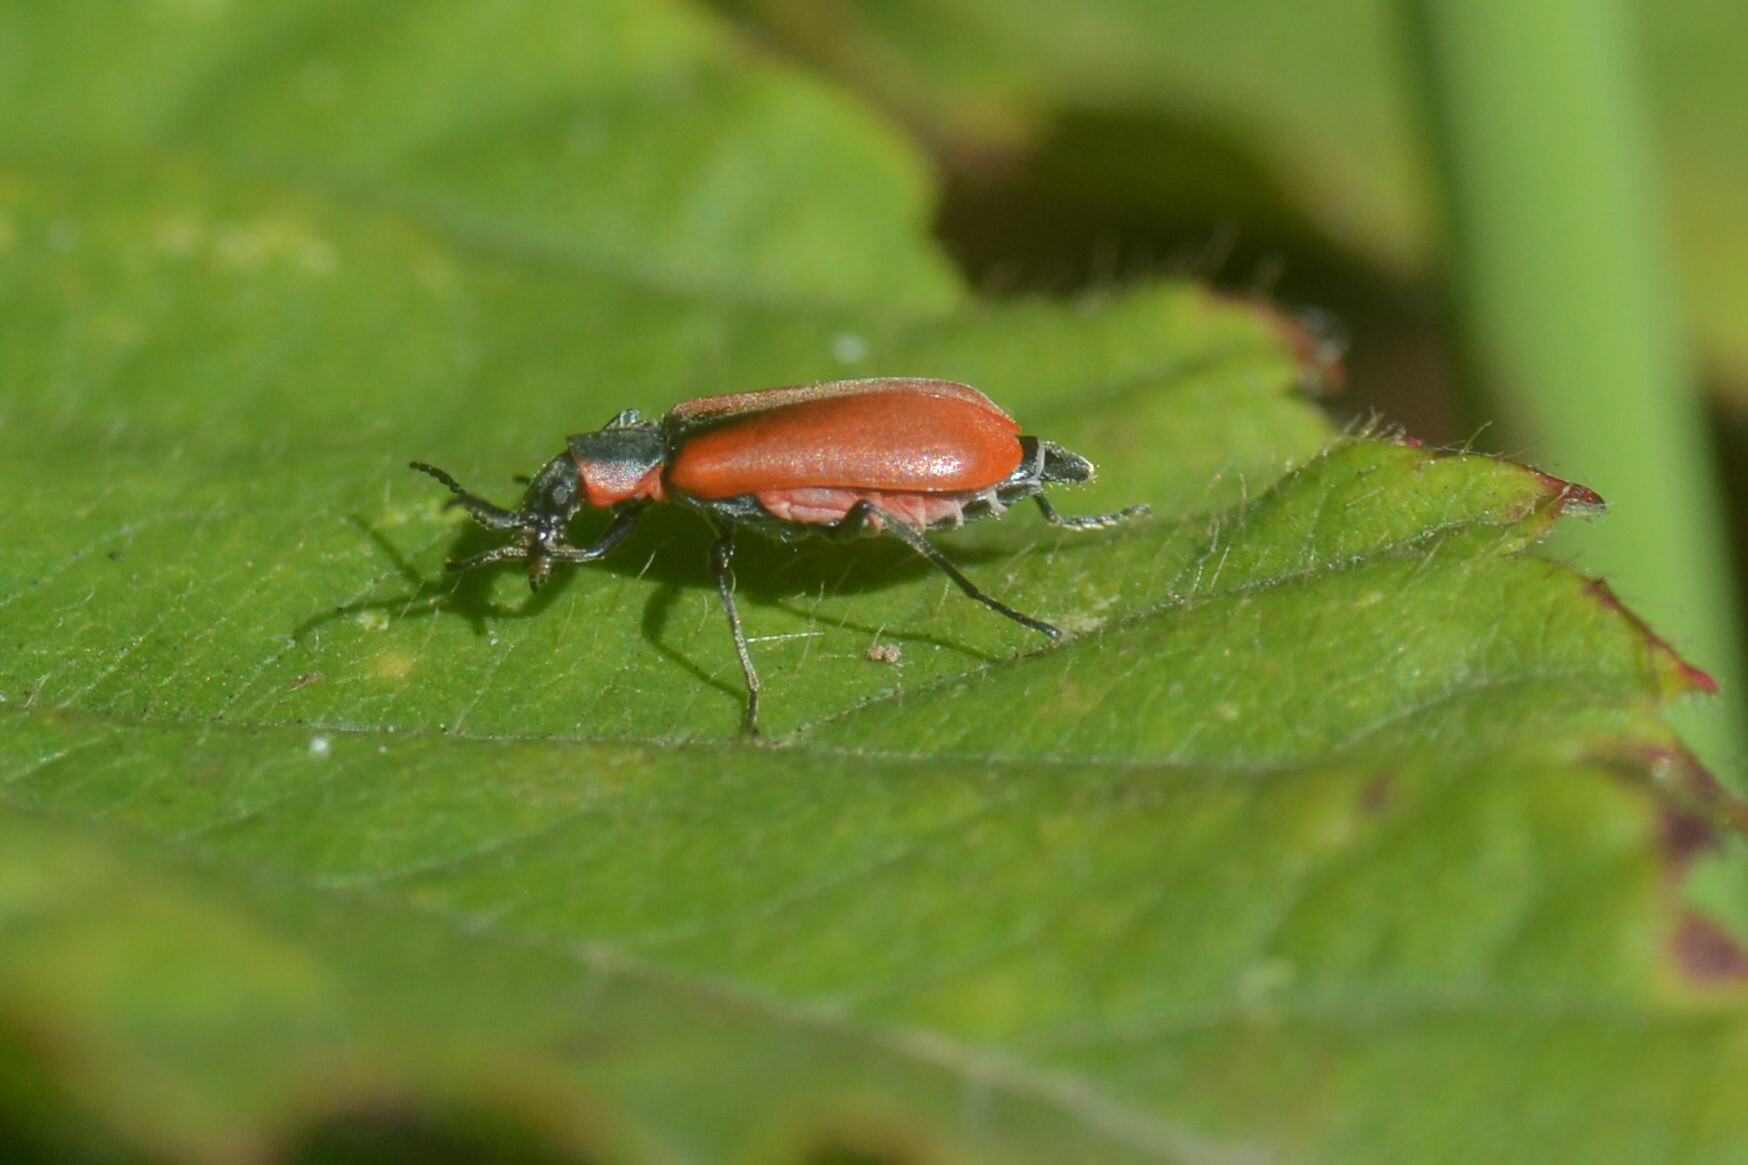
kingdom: Animalia
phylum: Arthropoda
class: Insecta
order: Coleoptera
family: Melyridae
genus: Anthocomus
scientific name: Anthocomus rufus
